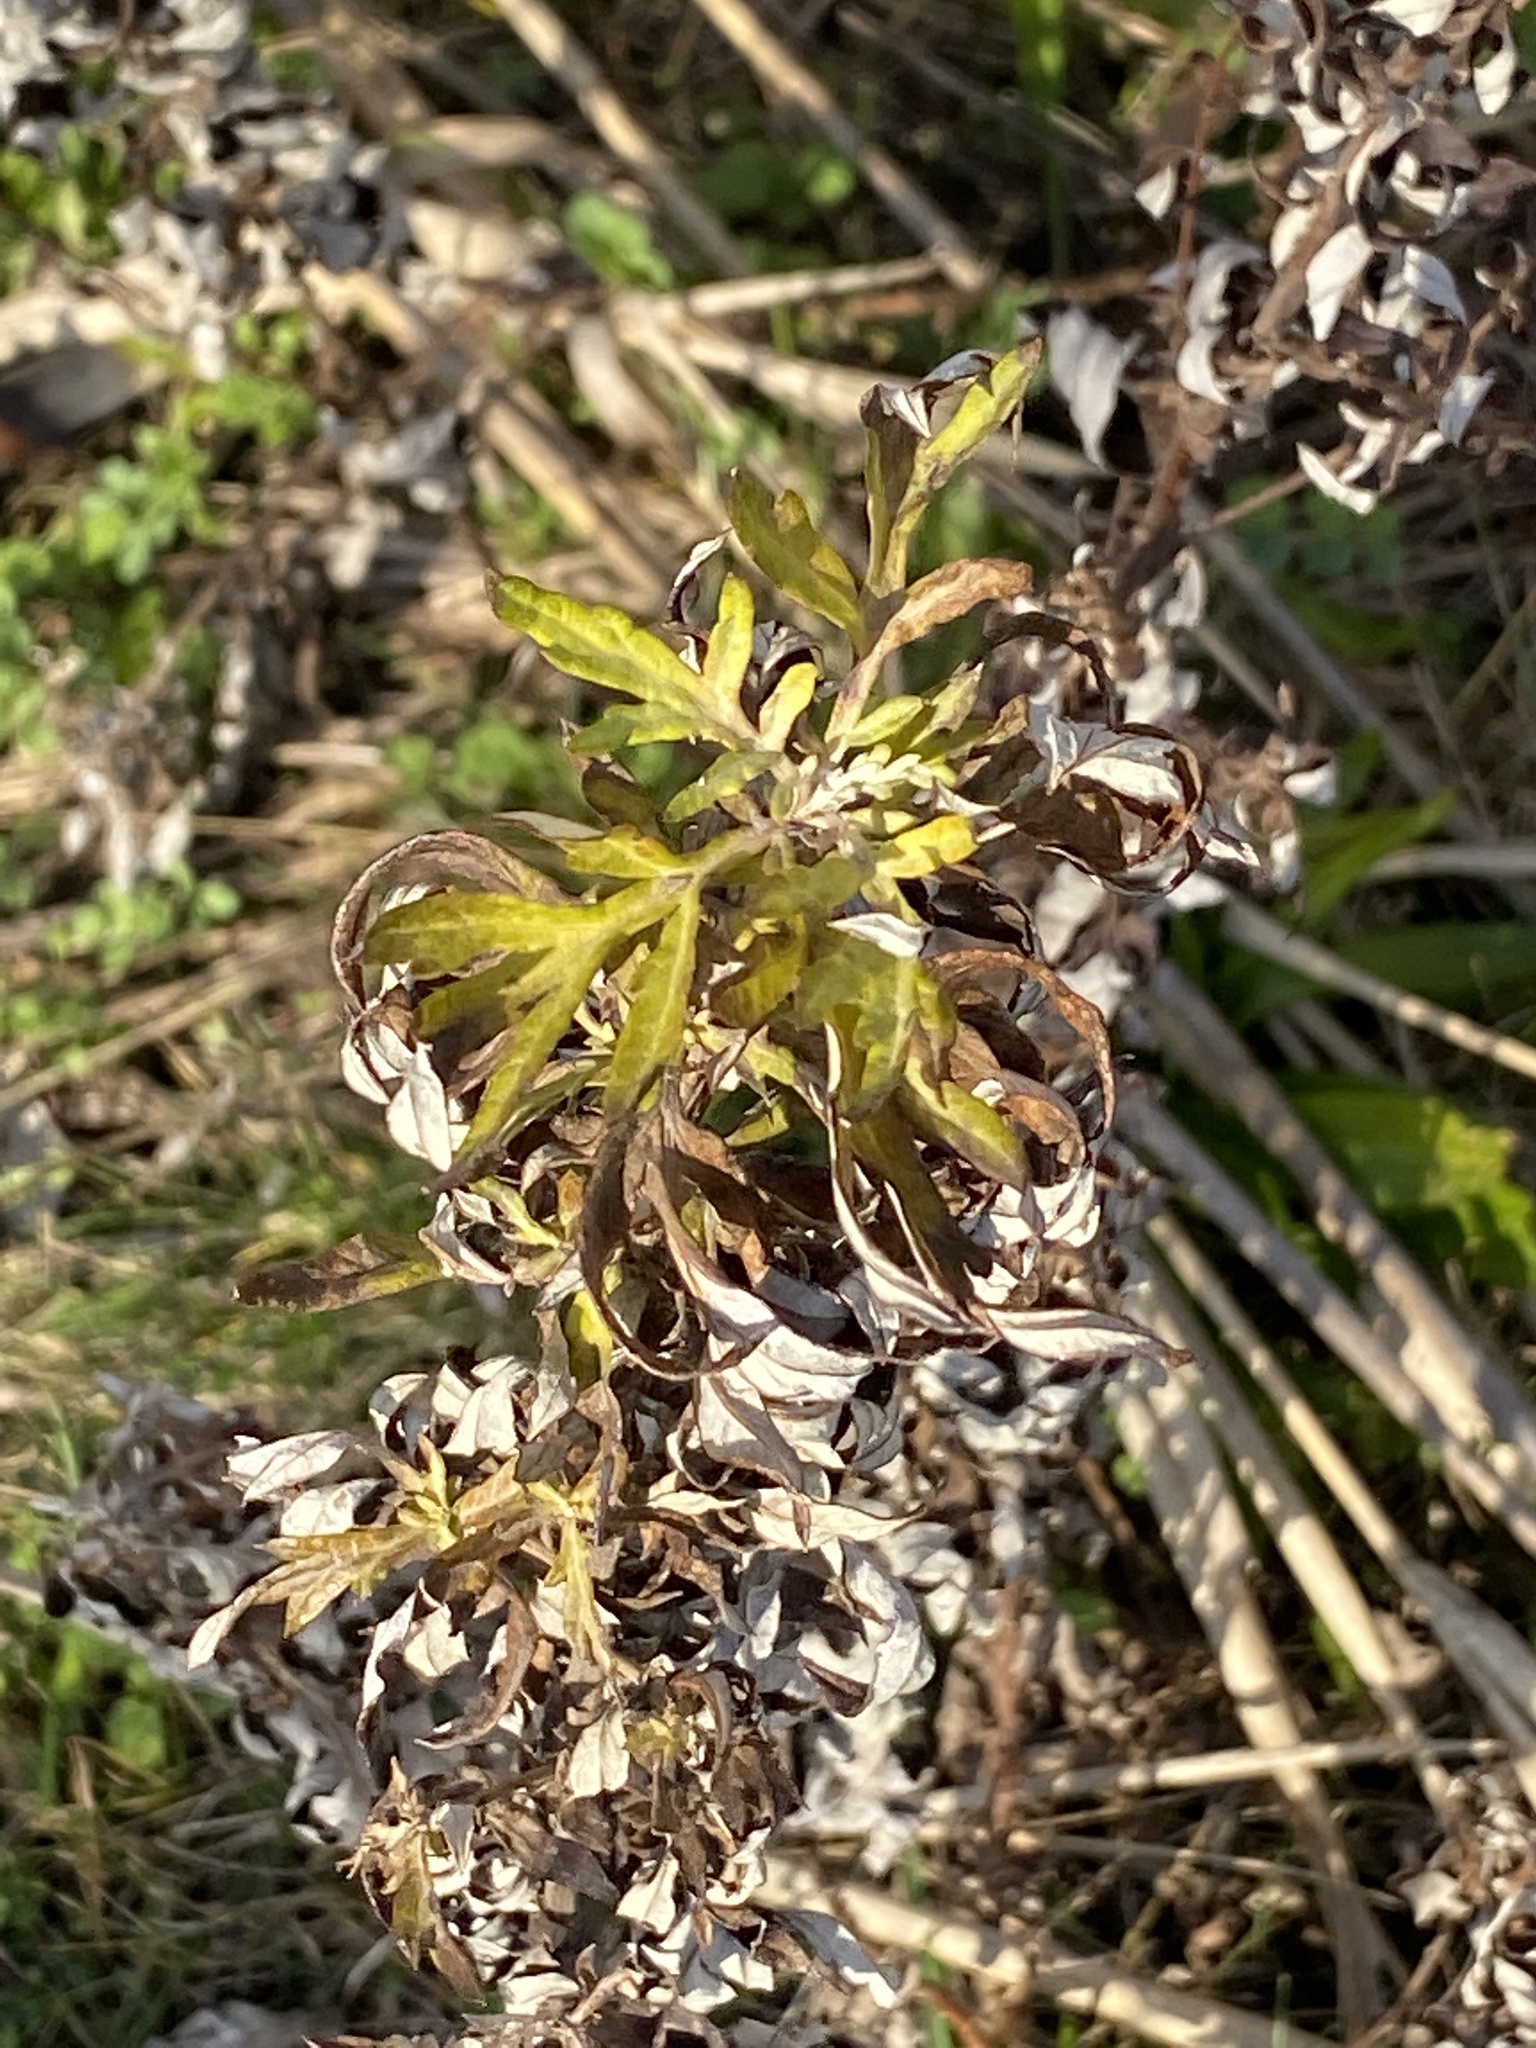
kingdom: Plantae
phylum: Tracheophyta
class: Magnoliopsida
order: Asterales
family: Asteraceae
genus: Artemisia
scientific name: Artemisia vulgaris
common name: Mugwort
